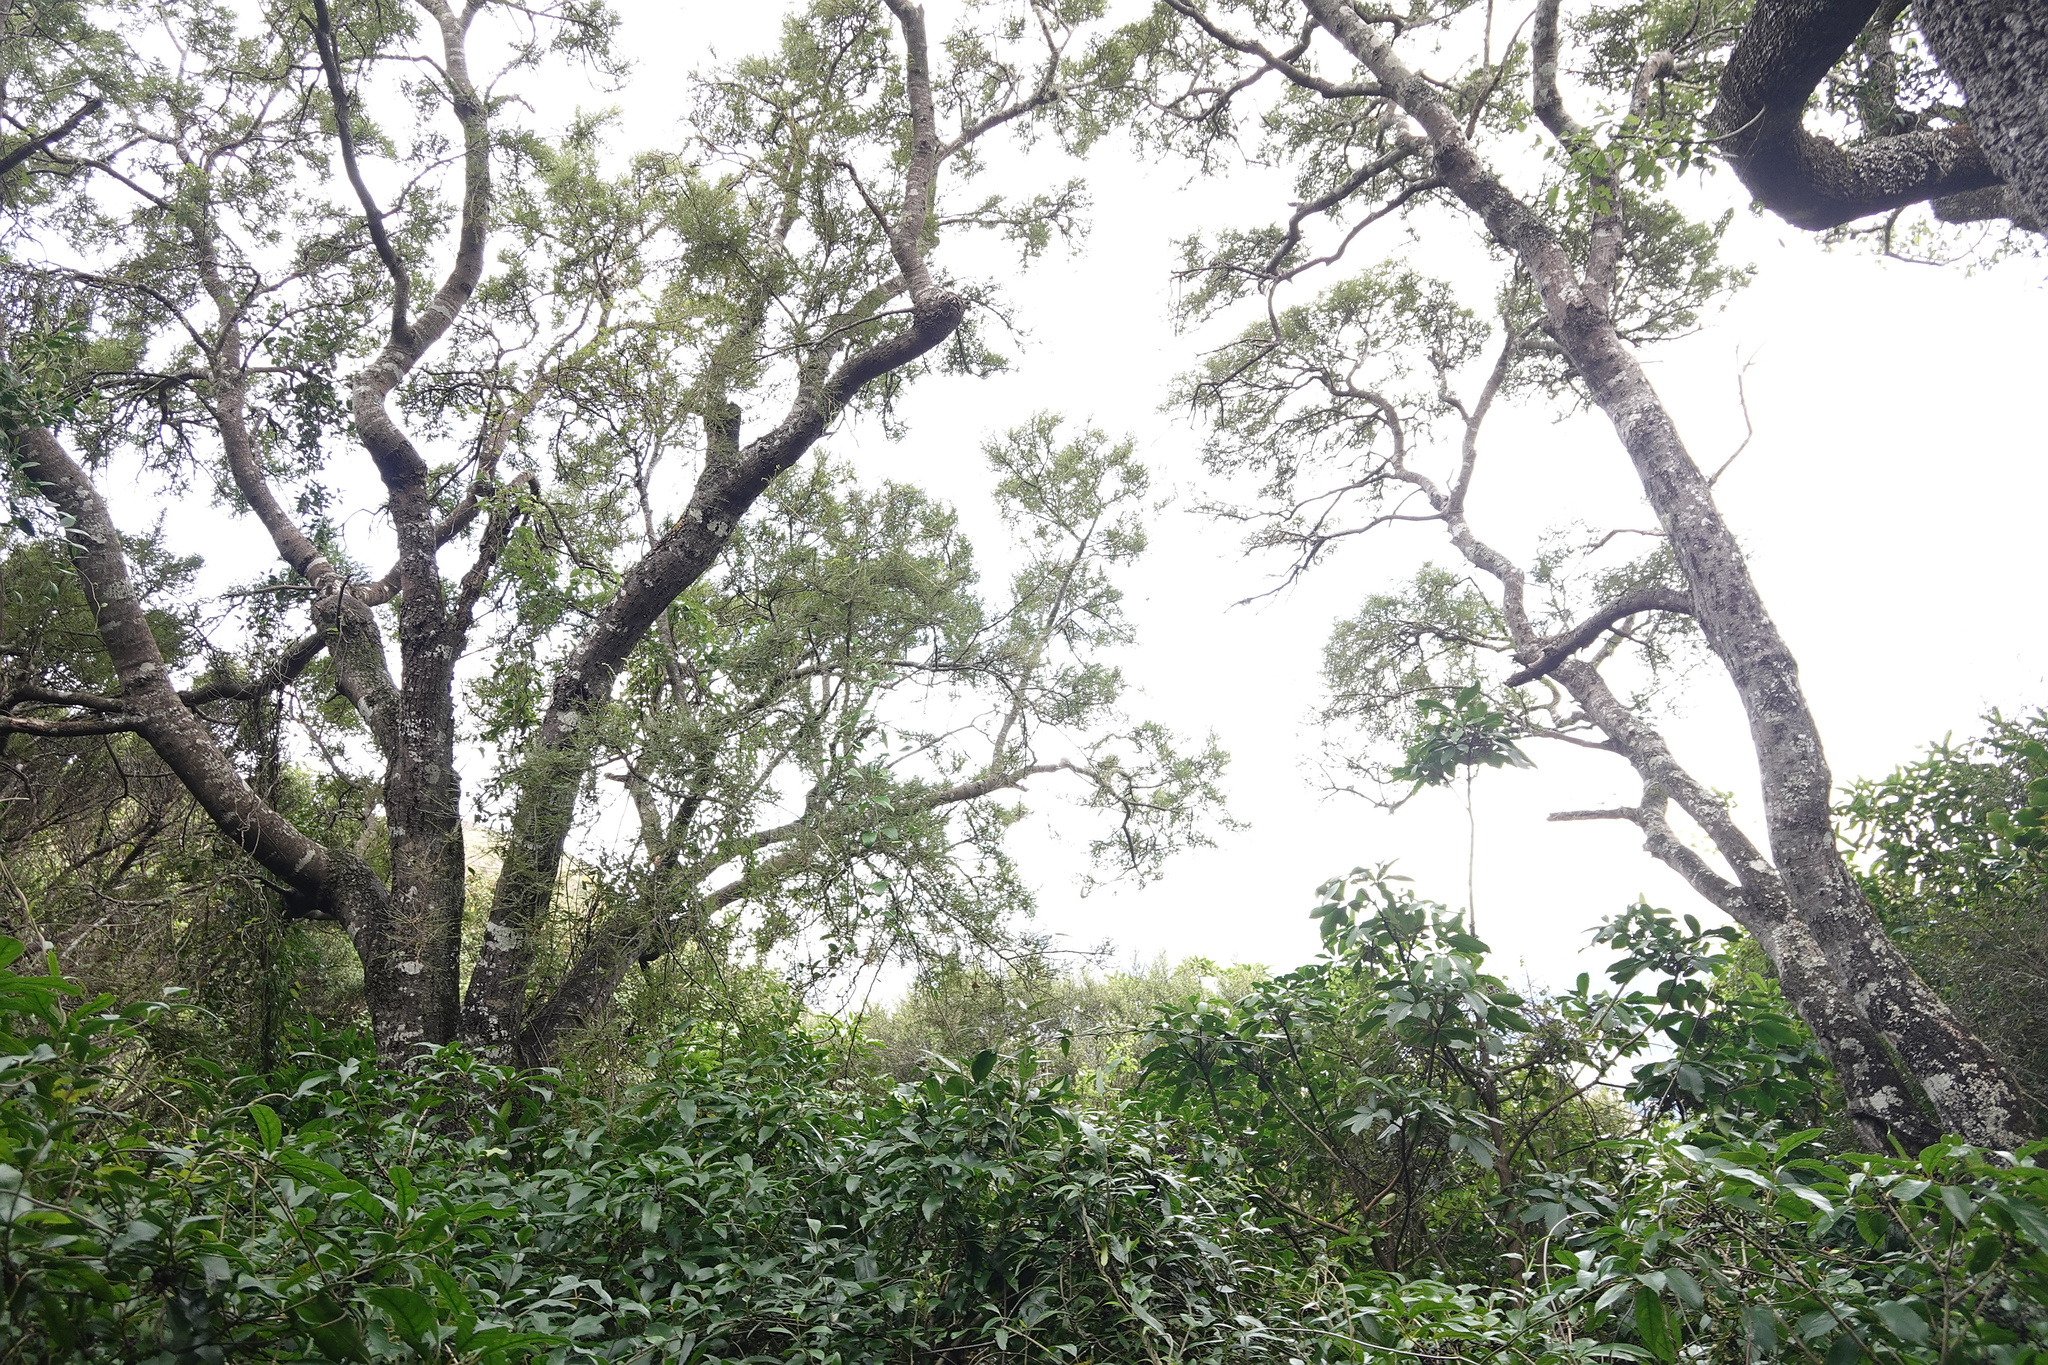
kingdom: Plantae
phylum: Tracheophyta
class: Magnoliopsida
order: Fabales
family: Fabaceae
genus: Sophora
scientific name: Sophora microphylla
